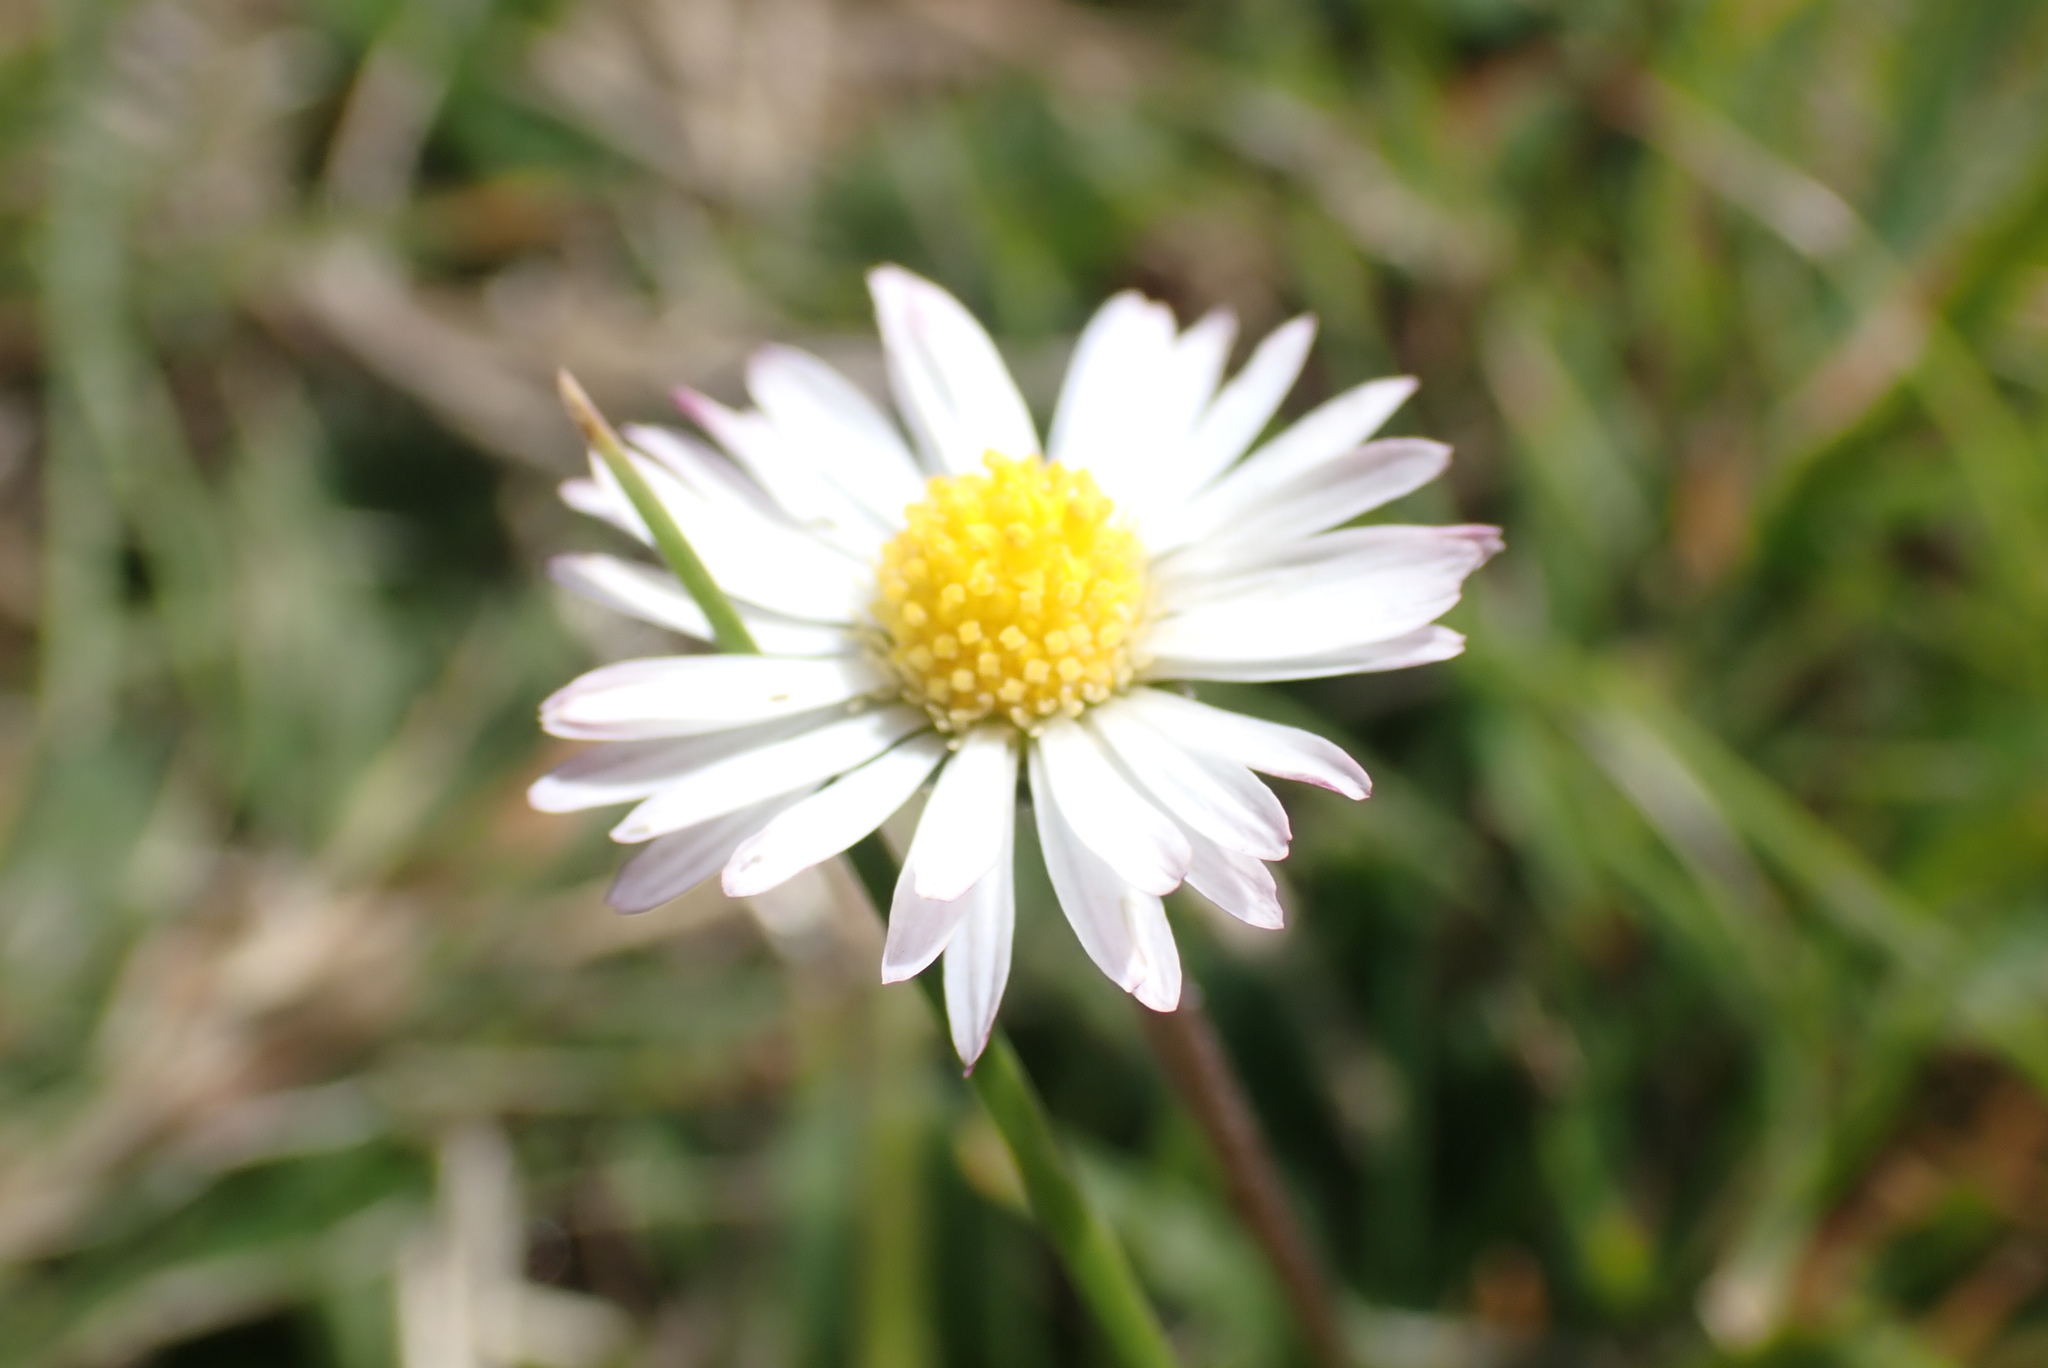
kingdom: Plantae
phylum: Tracheophyta
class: Magnoliopsida
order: Asterales
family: Asteraceae
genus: Bellis
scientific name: Bellis perennis
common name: Lawndaisy
